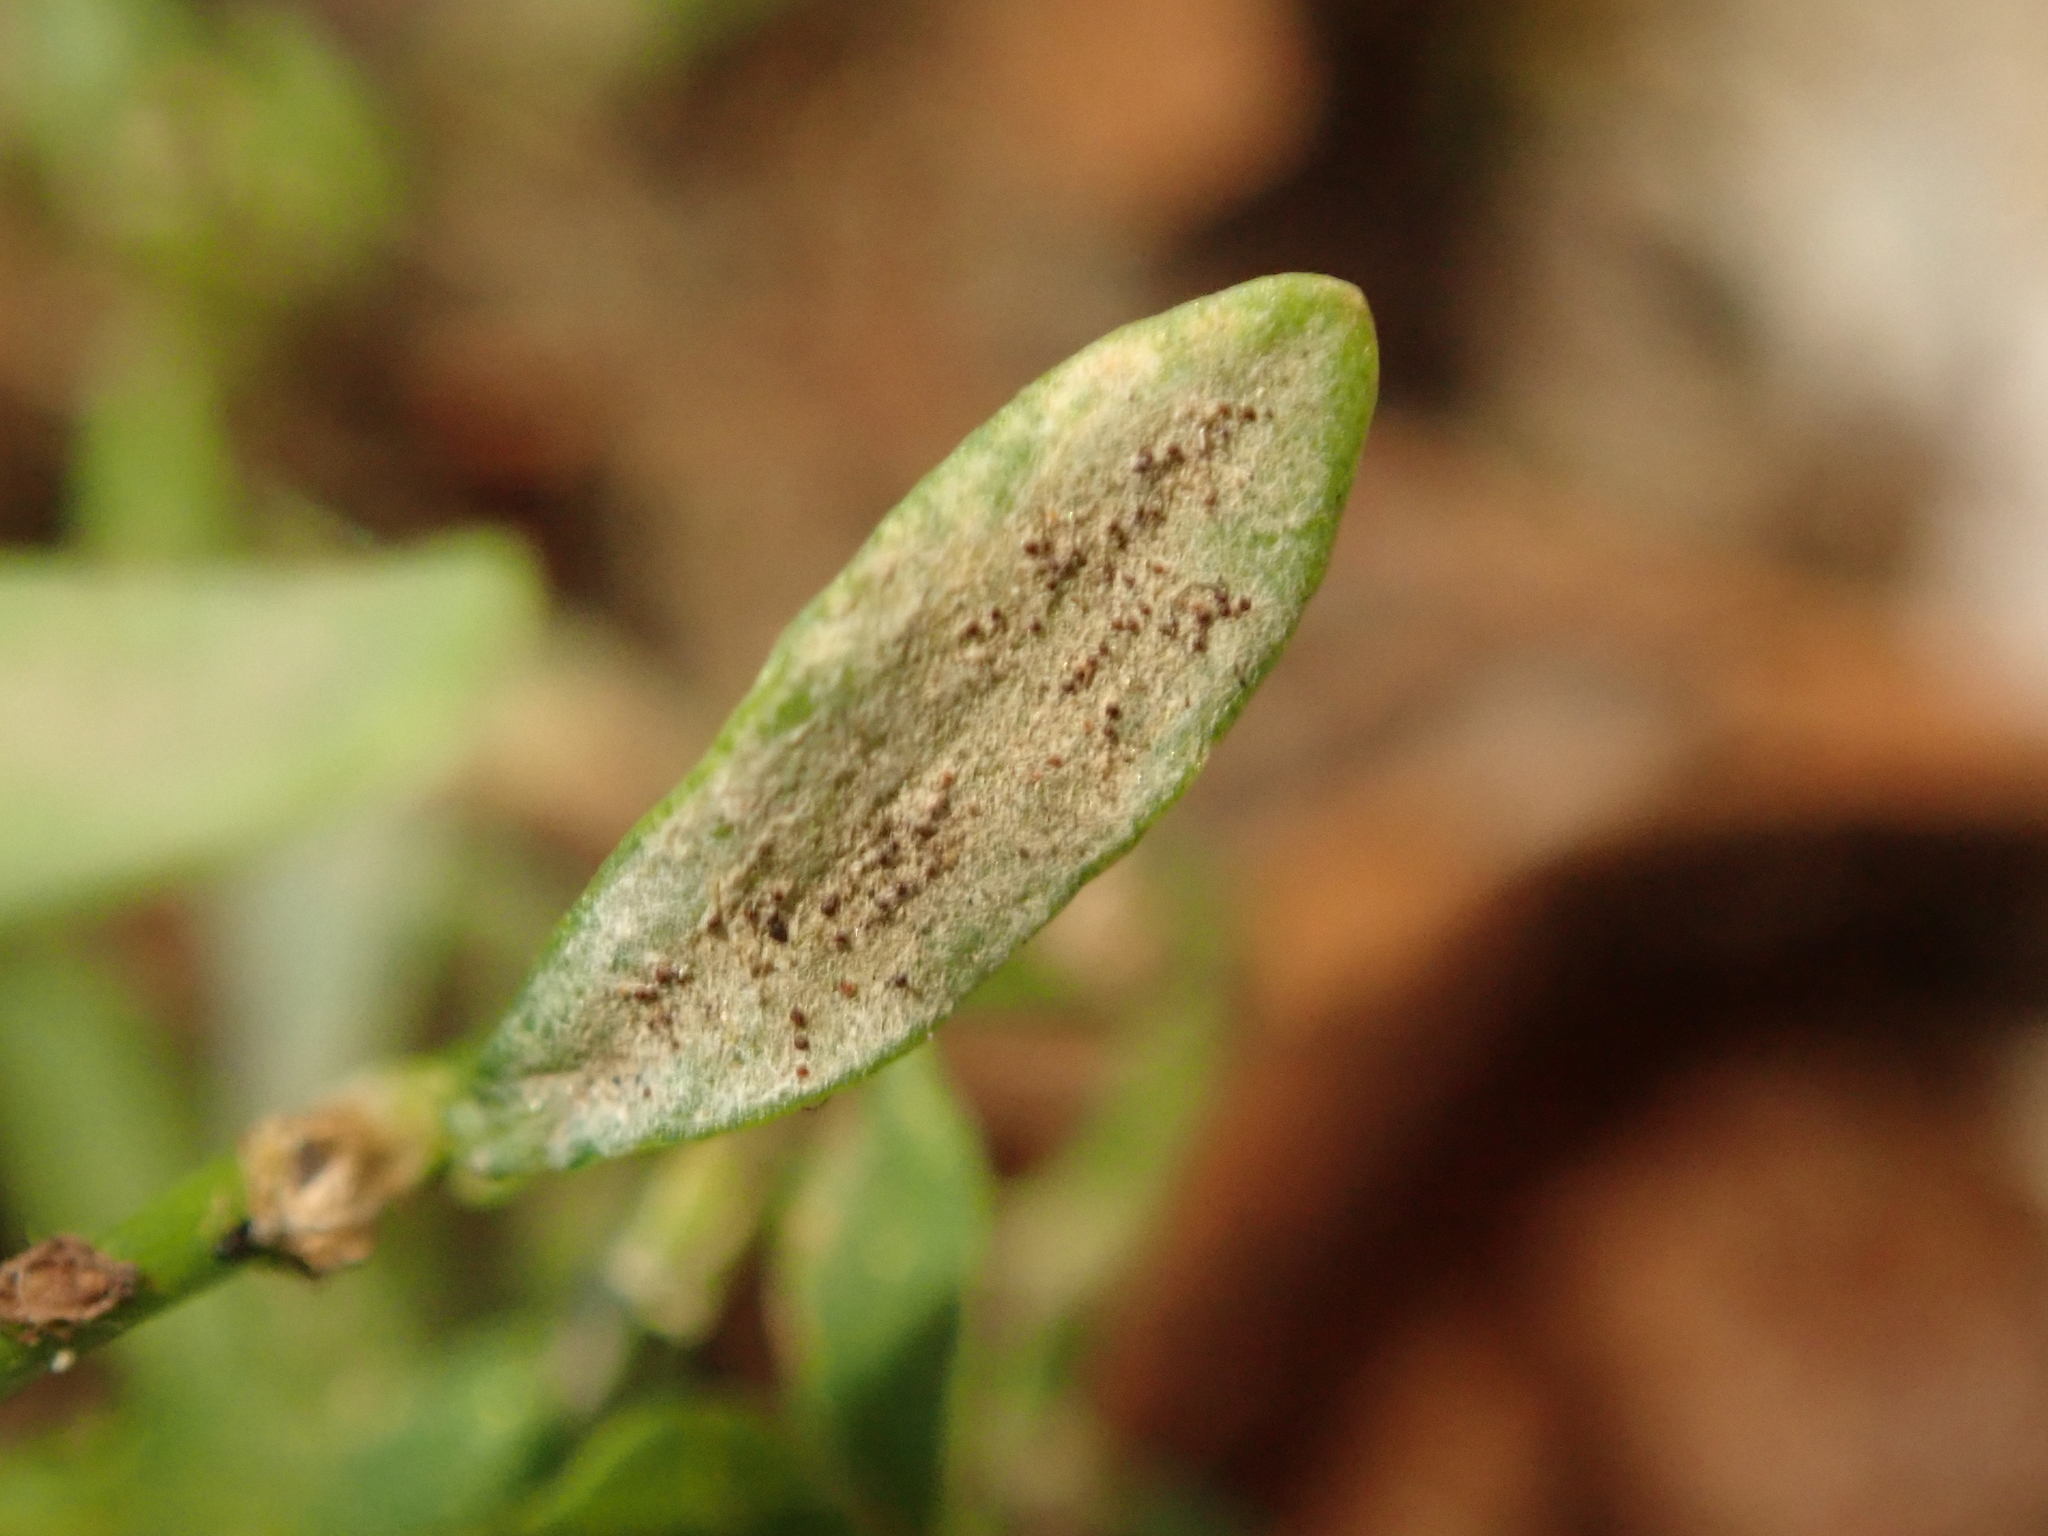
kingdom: Fungi
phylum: Ascomycota
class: Leotiomycetes
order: Helotiales
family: Erysiphaceae
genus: Erysiphe
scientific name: Erysiphe polygoni
